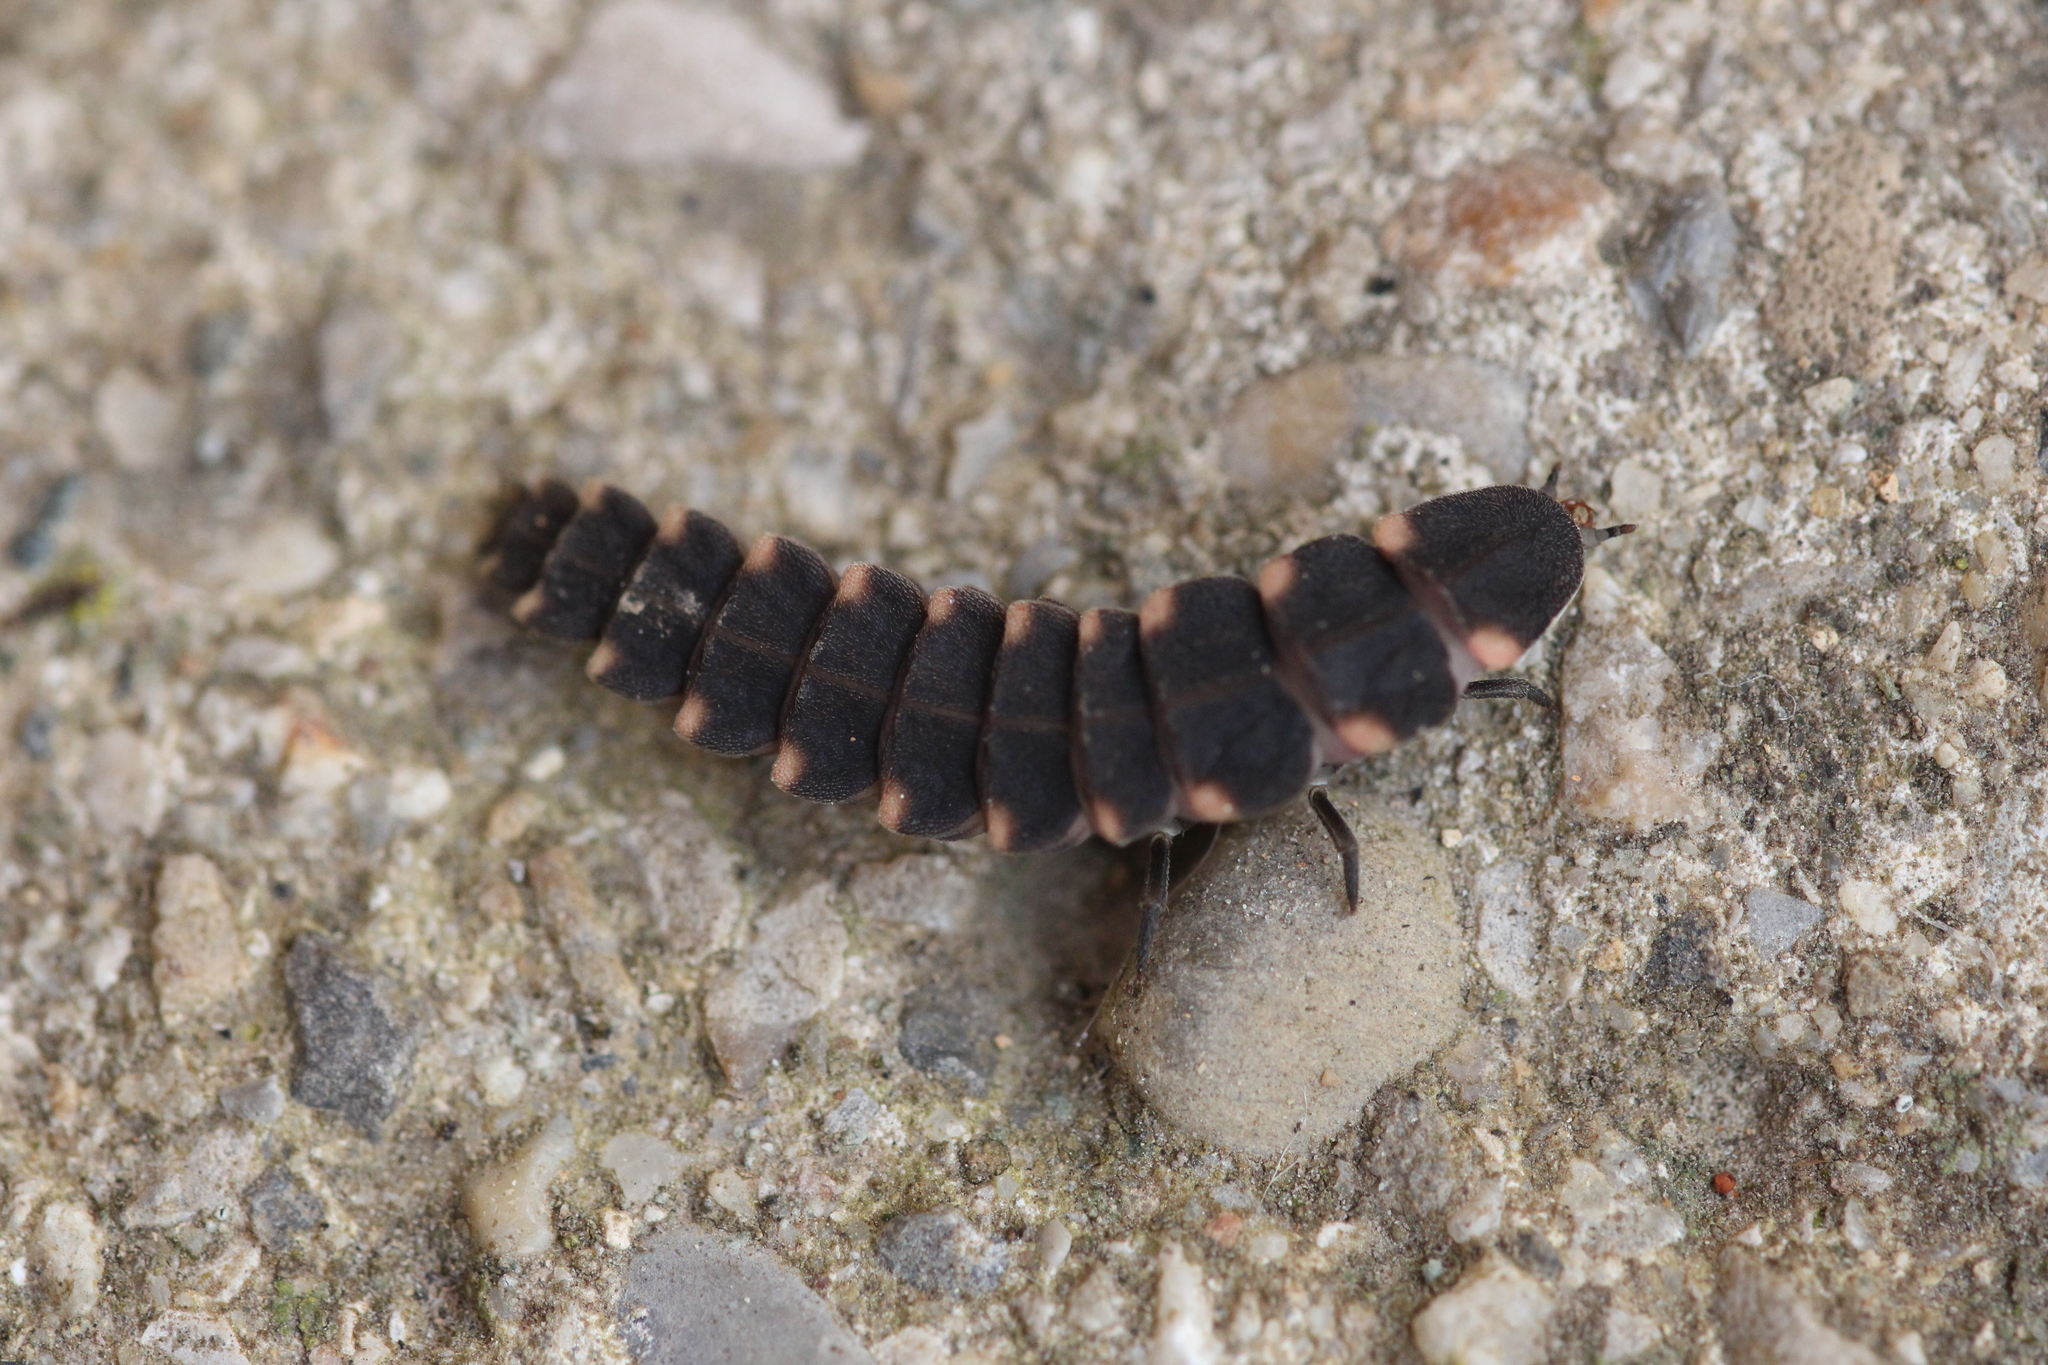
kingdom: Animalia
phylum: Arthropoda
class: Insecta
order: Coleoptera
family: Lampyridae
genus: Lampyris
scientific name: Lampyris noctiluca
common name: Glow-worm
